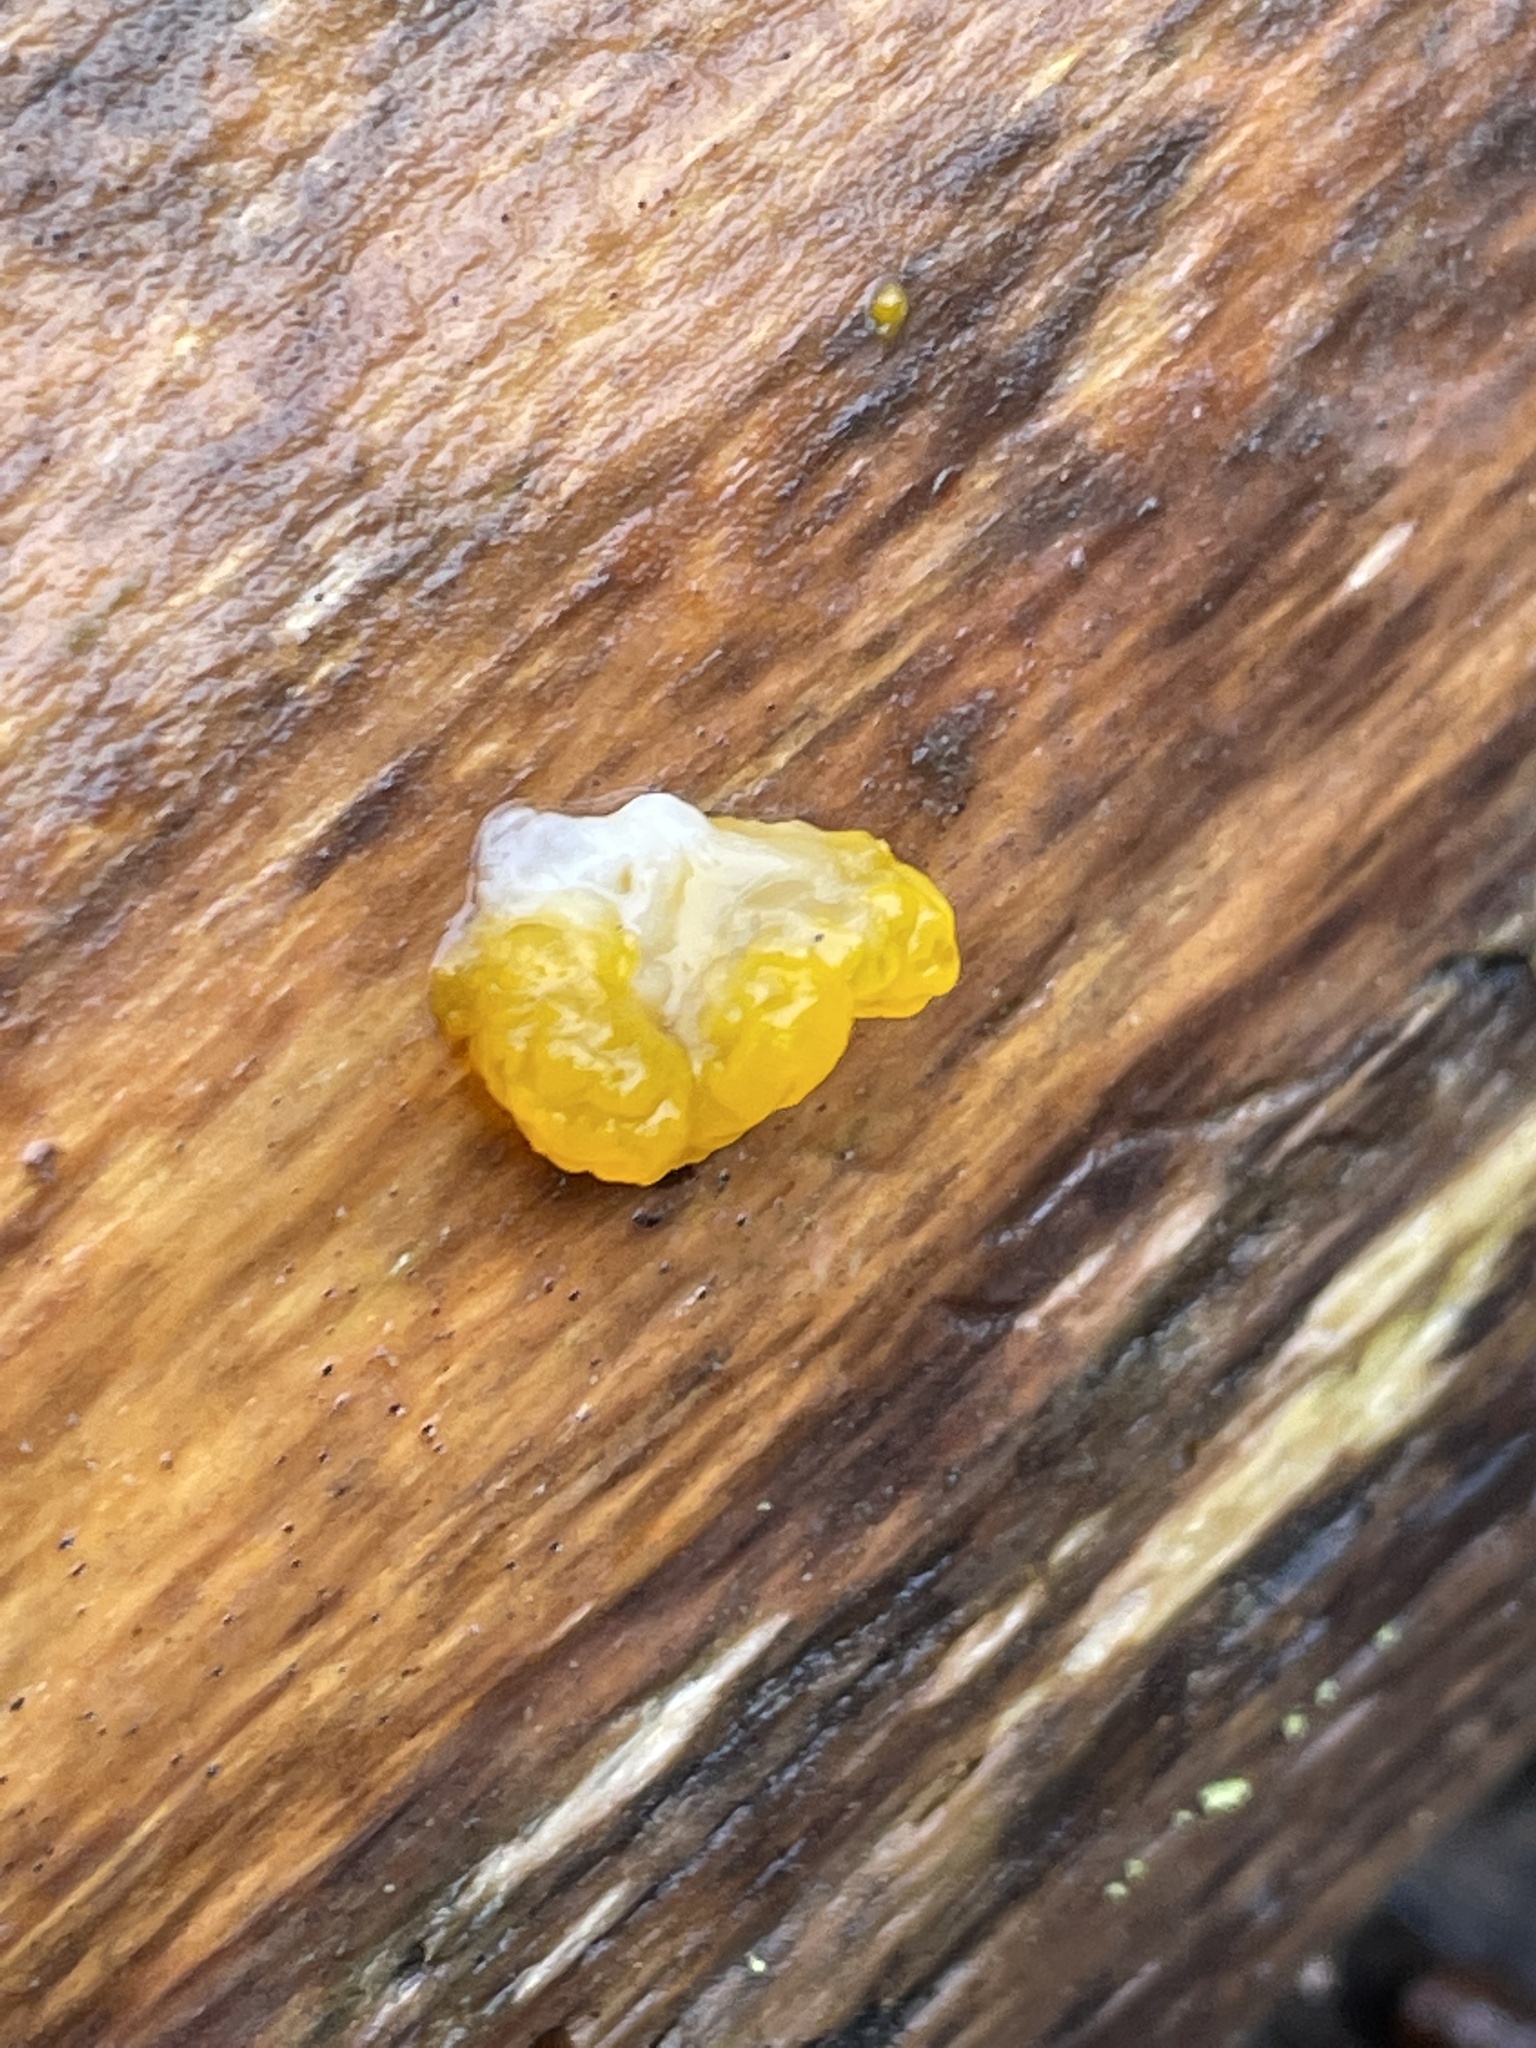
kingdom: Fungi
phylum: Basidiomycota
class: Dacrymycetes
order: Dacrymycetales
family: Dacrymycetaceae
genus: Dacrymyces
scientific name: Dacrymyces chrysospermus
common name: Orange jelly spot
